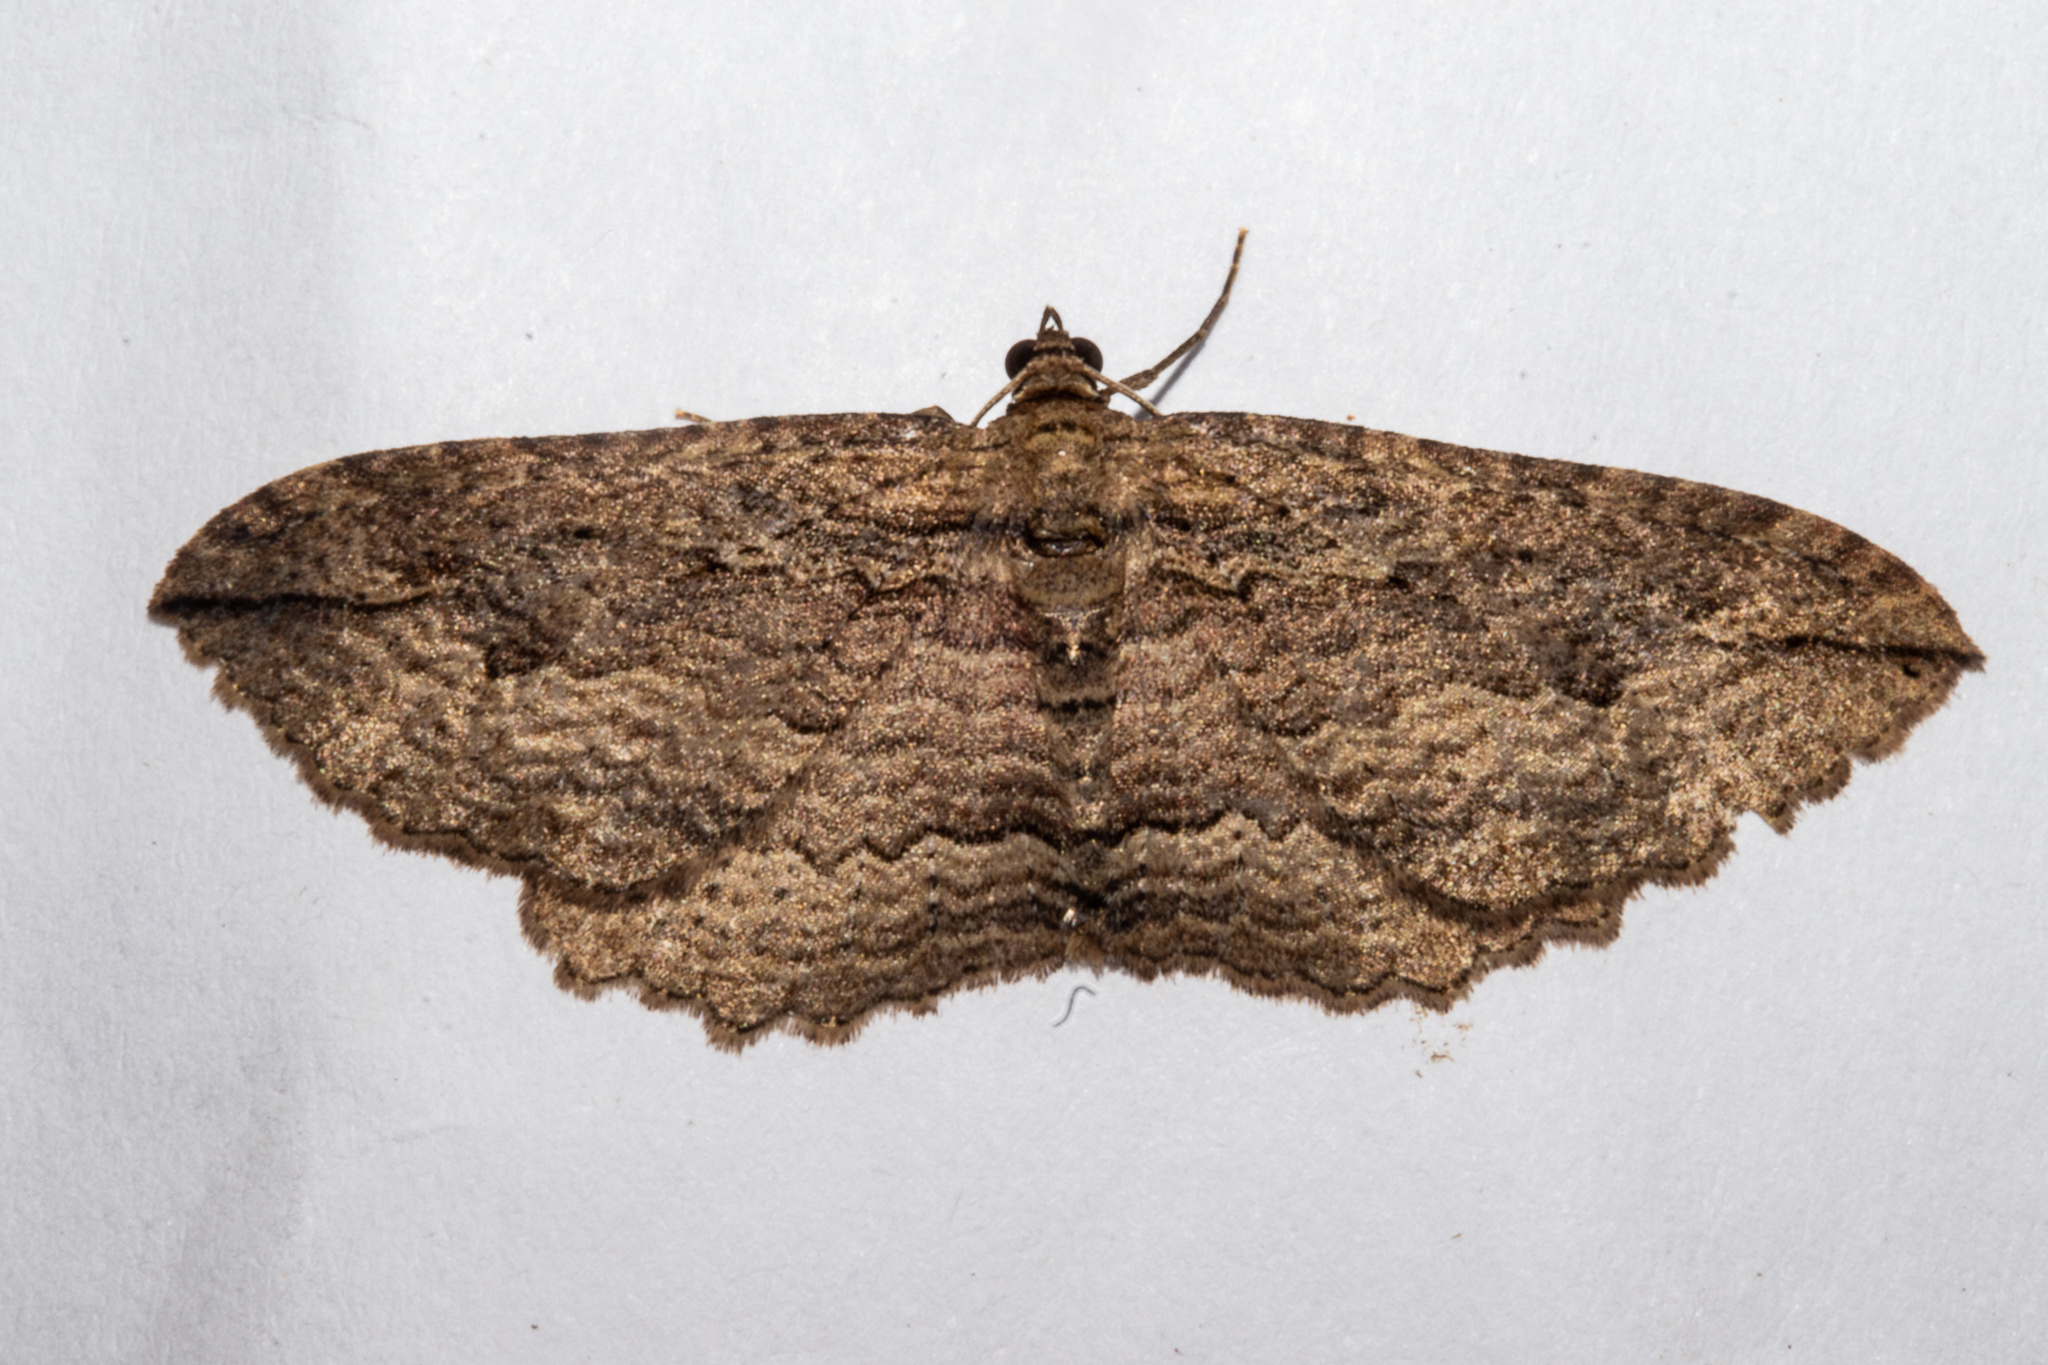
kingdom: Animalia
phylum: Arthropoda
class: Insecta
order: Lepidoptera
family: Geometridae
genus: Austrocidaria
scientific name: Austrocidaria gobiata
